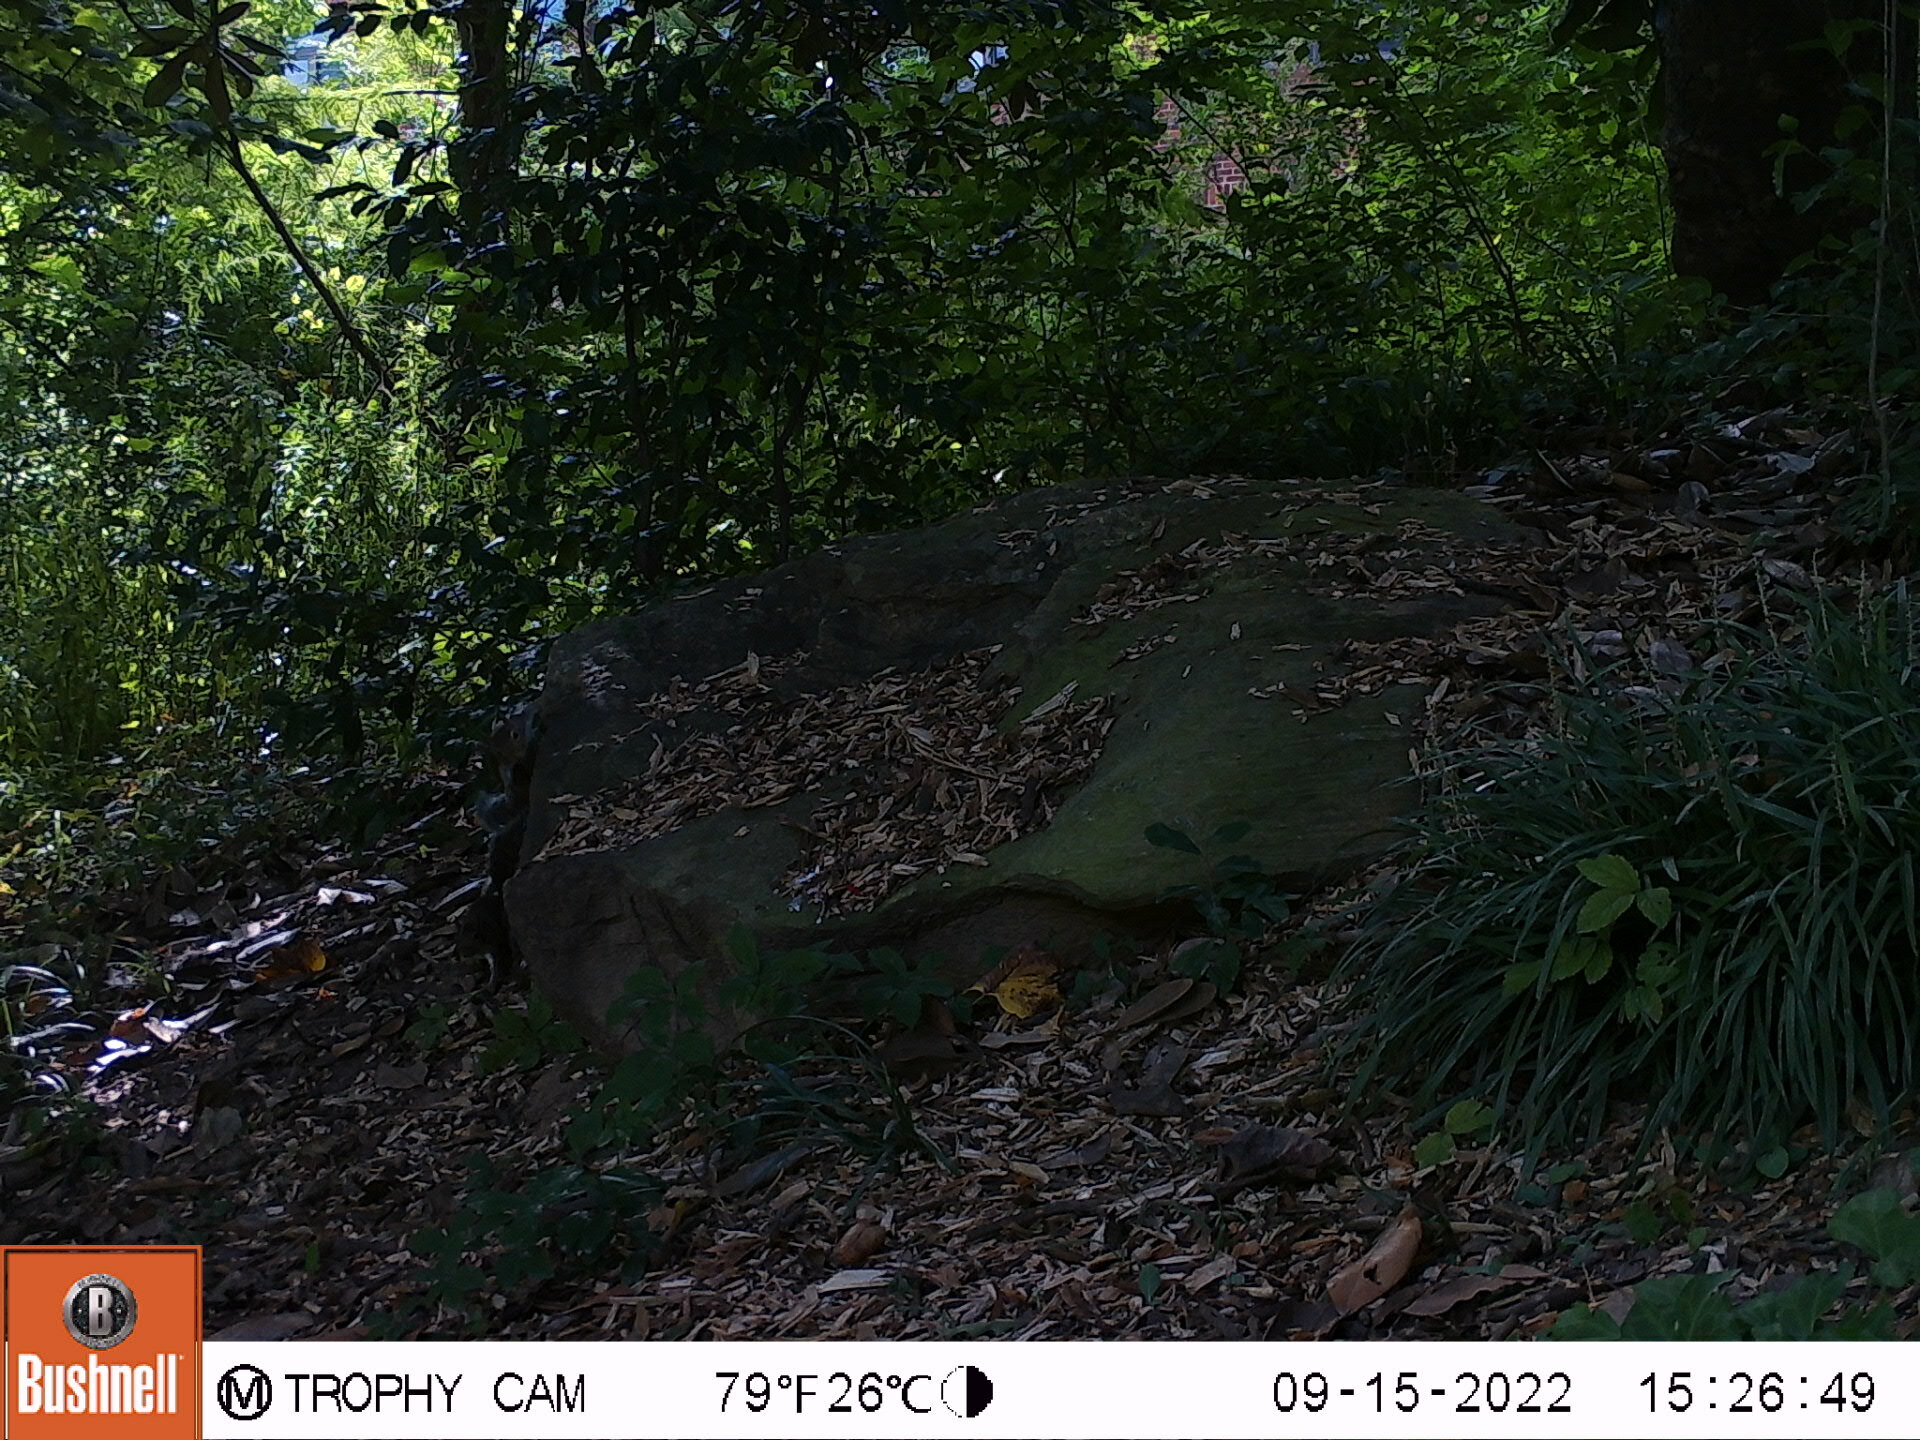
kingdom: Animalia
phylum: Chordata
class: Mammalia
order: Rodentia
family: Sciuridae
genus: Sciurus
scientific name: Sciurus carolinensis
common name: Eastern gray squirrel
